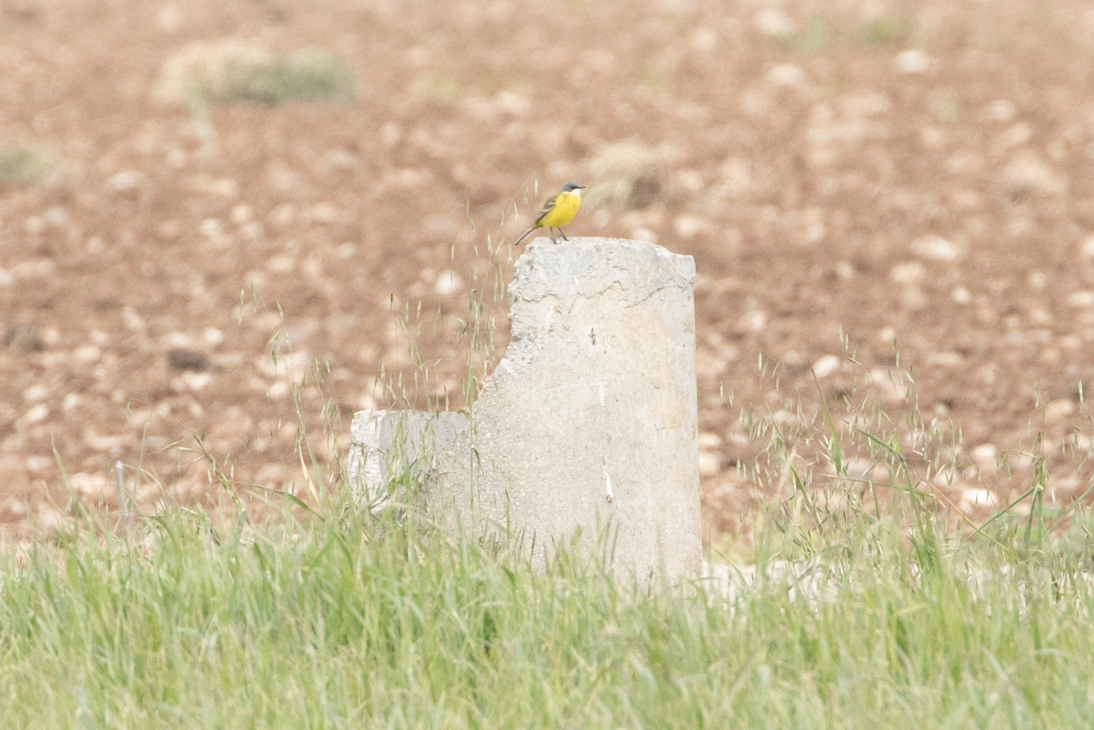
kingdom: Animalia
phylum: Chordata
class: Aves
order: Passeriformes
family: Motacillidae
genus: Motacilla
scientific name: Motacilla flava
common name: Western yellow wagtail
